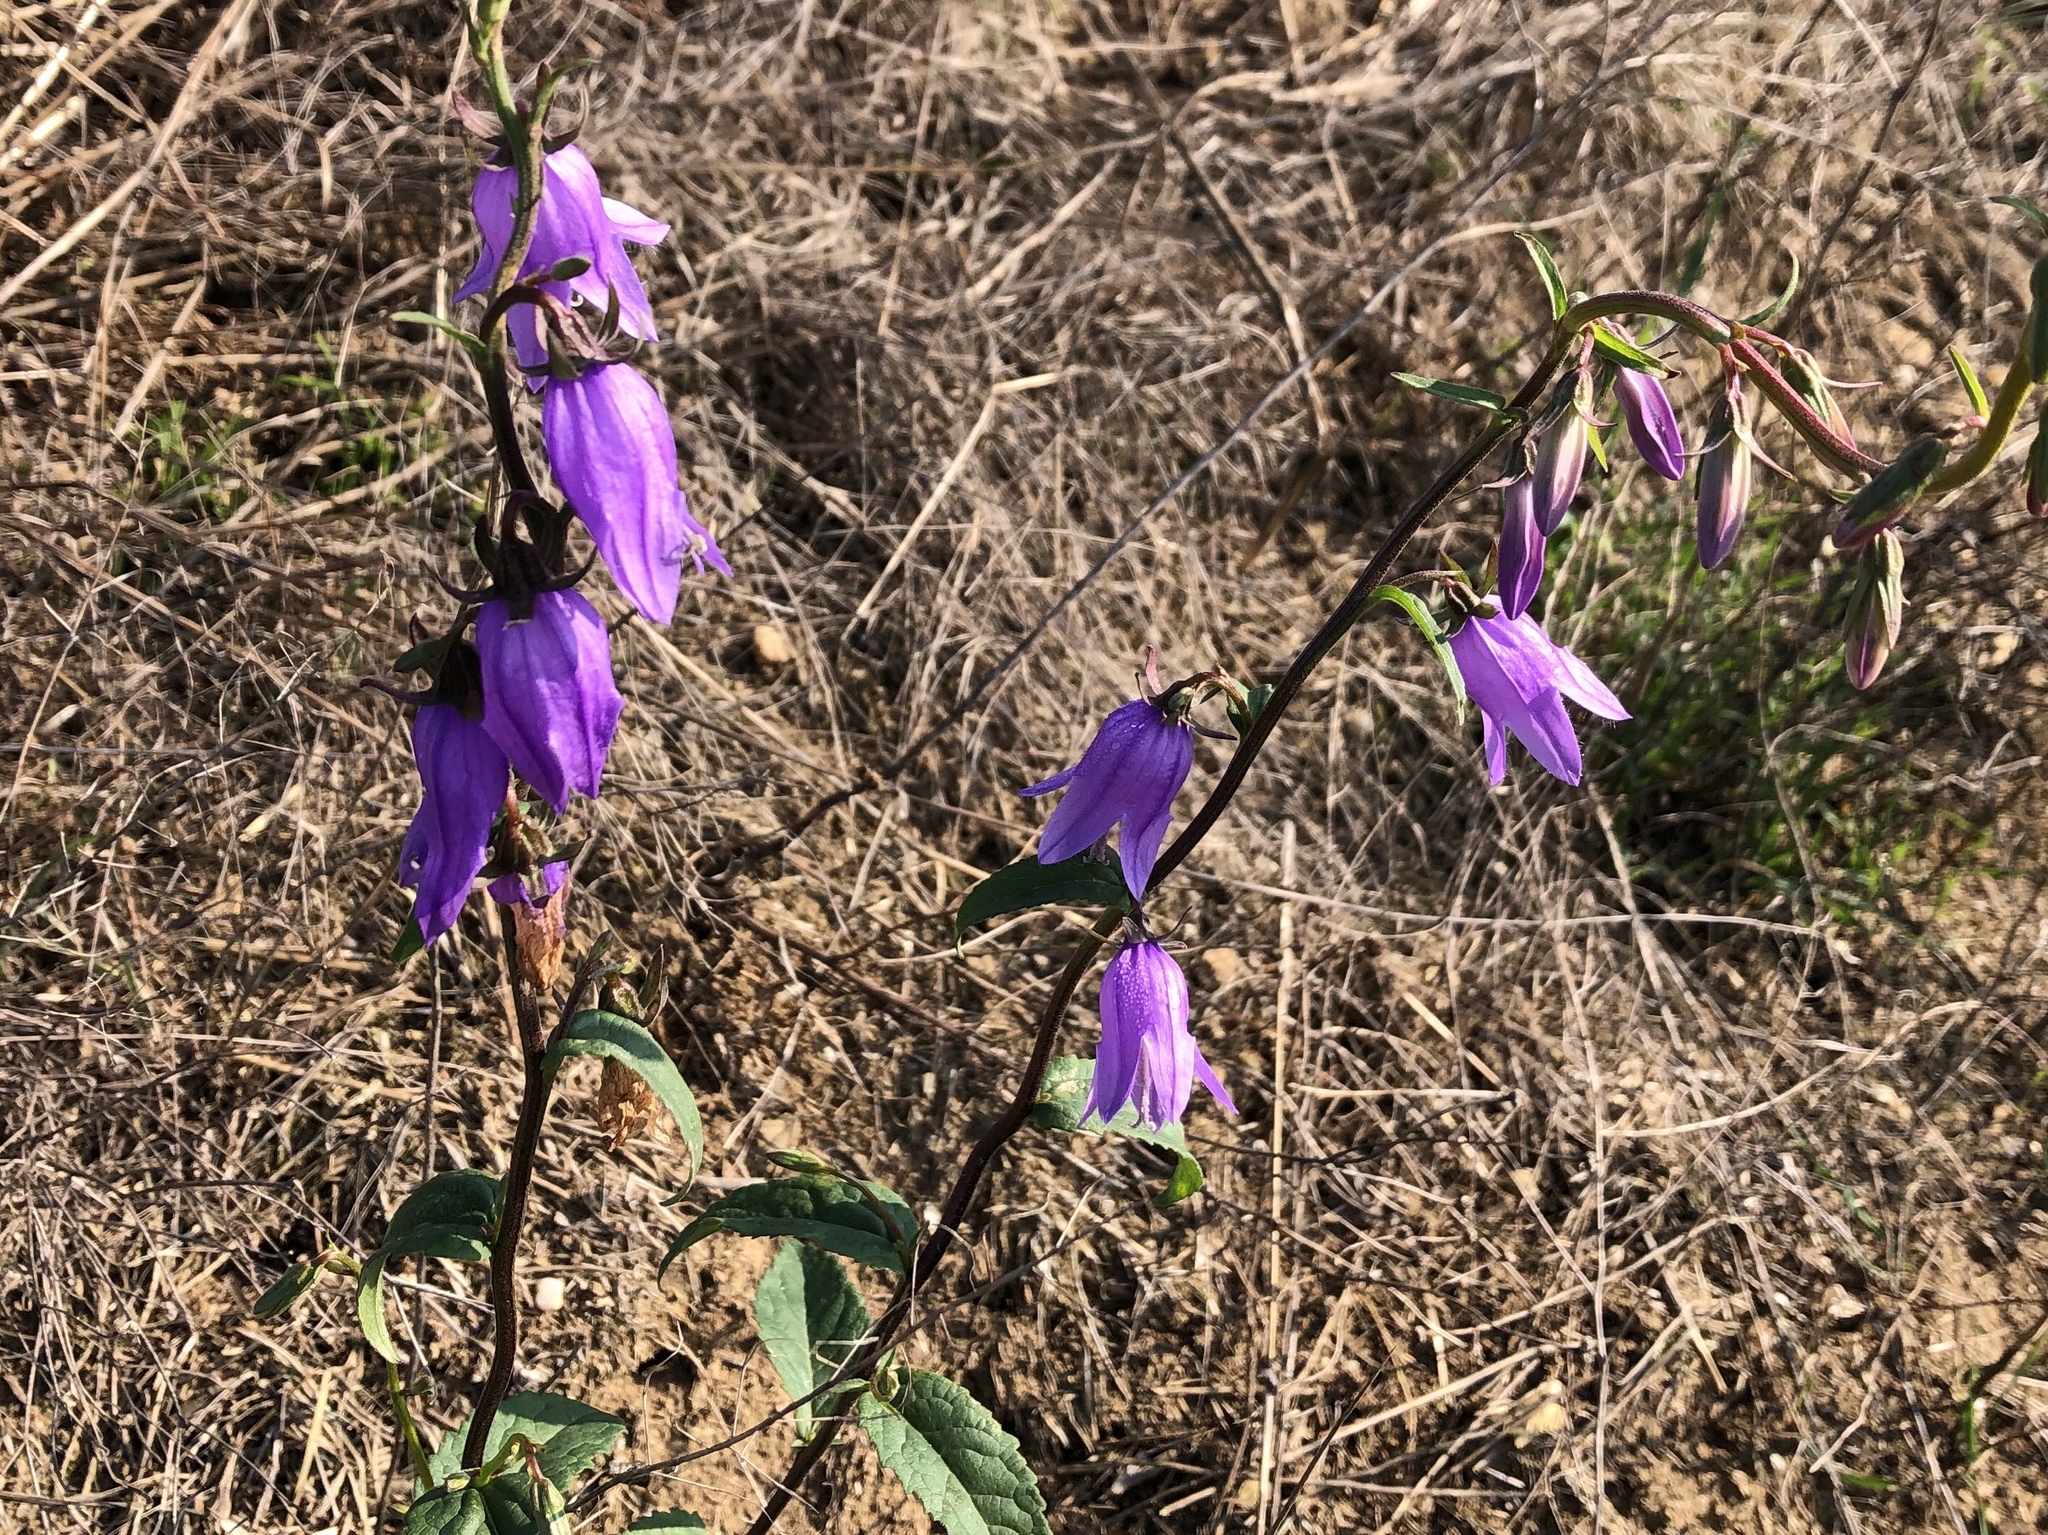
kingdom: Plantae
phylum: Tracheophyta
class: Magnoliopsida
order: Asterales
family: Campanulaceae
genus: Campanula
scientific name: Campanula rapunculoides
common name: Creeping bellflower
